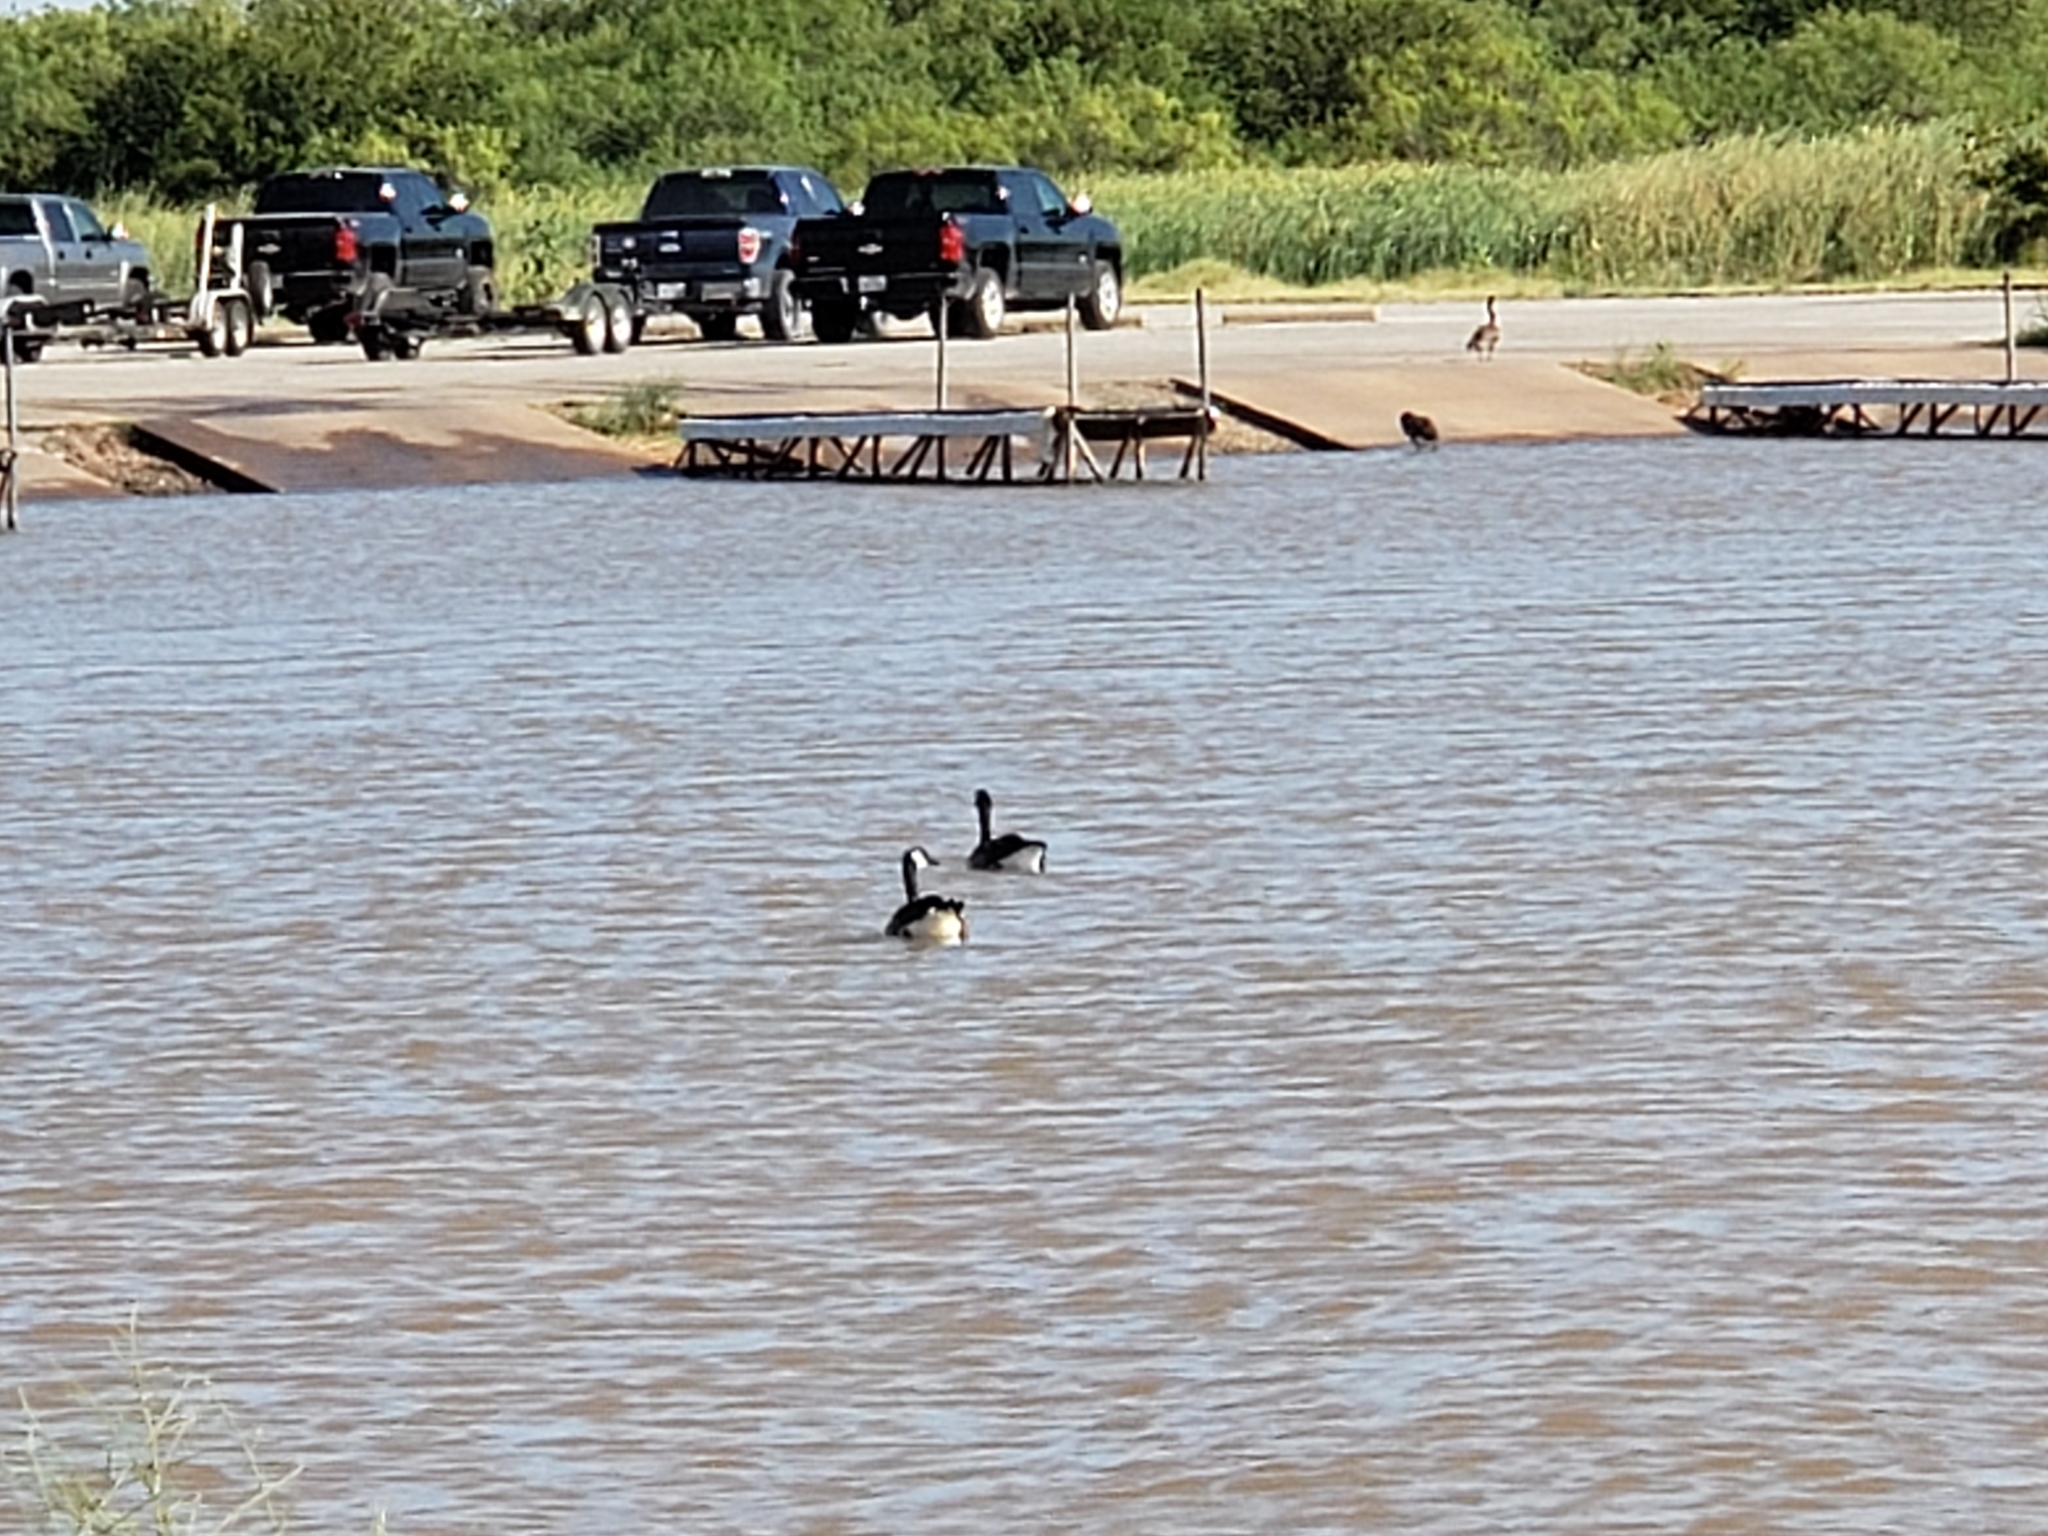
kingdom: Animalia
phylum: Chordata
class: Aves
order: Anseriformes
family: Anatidae
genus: Branta
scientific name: Branta canadensis
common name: Canada goose
